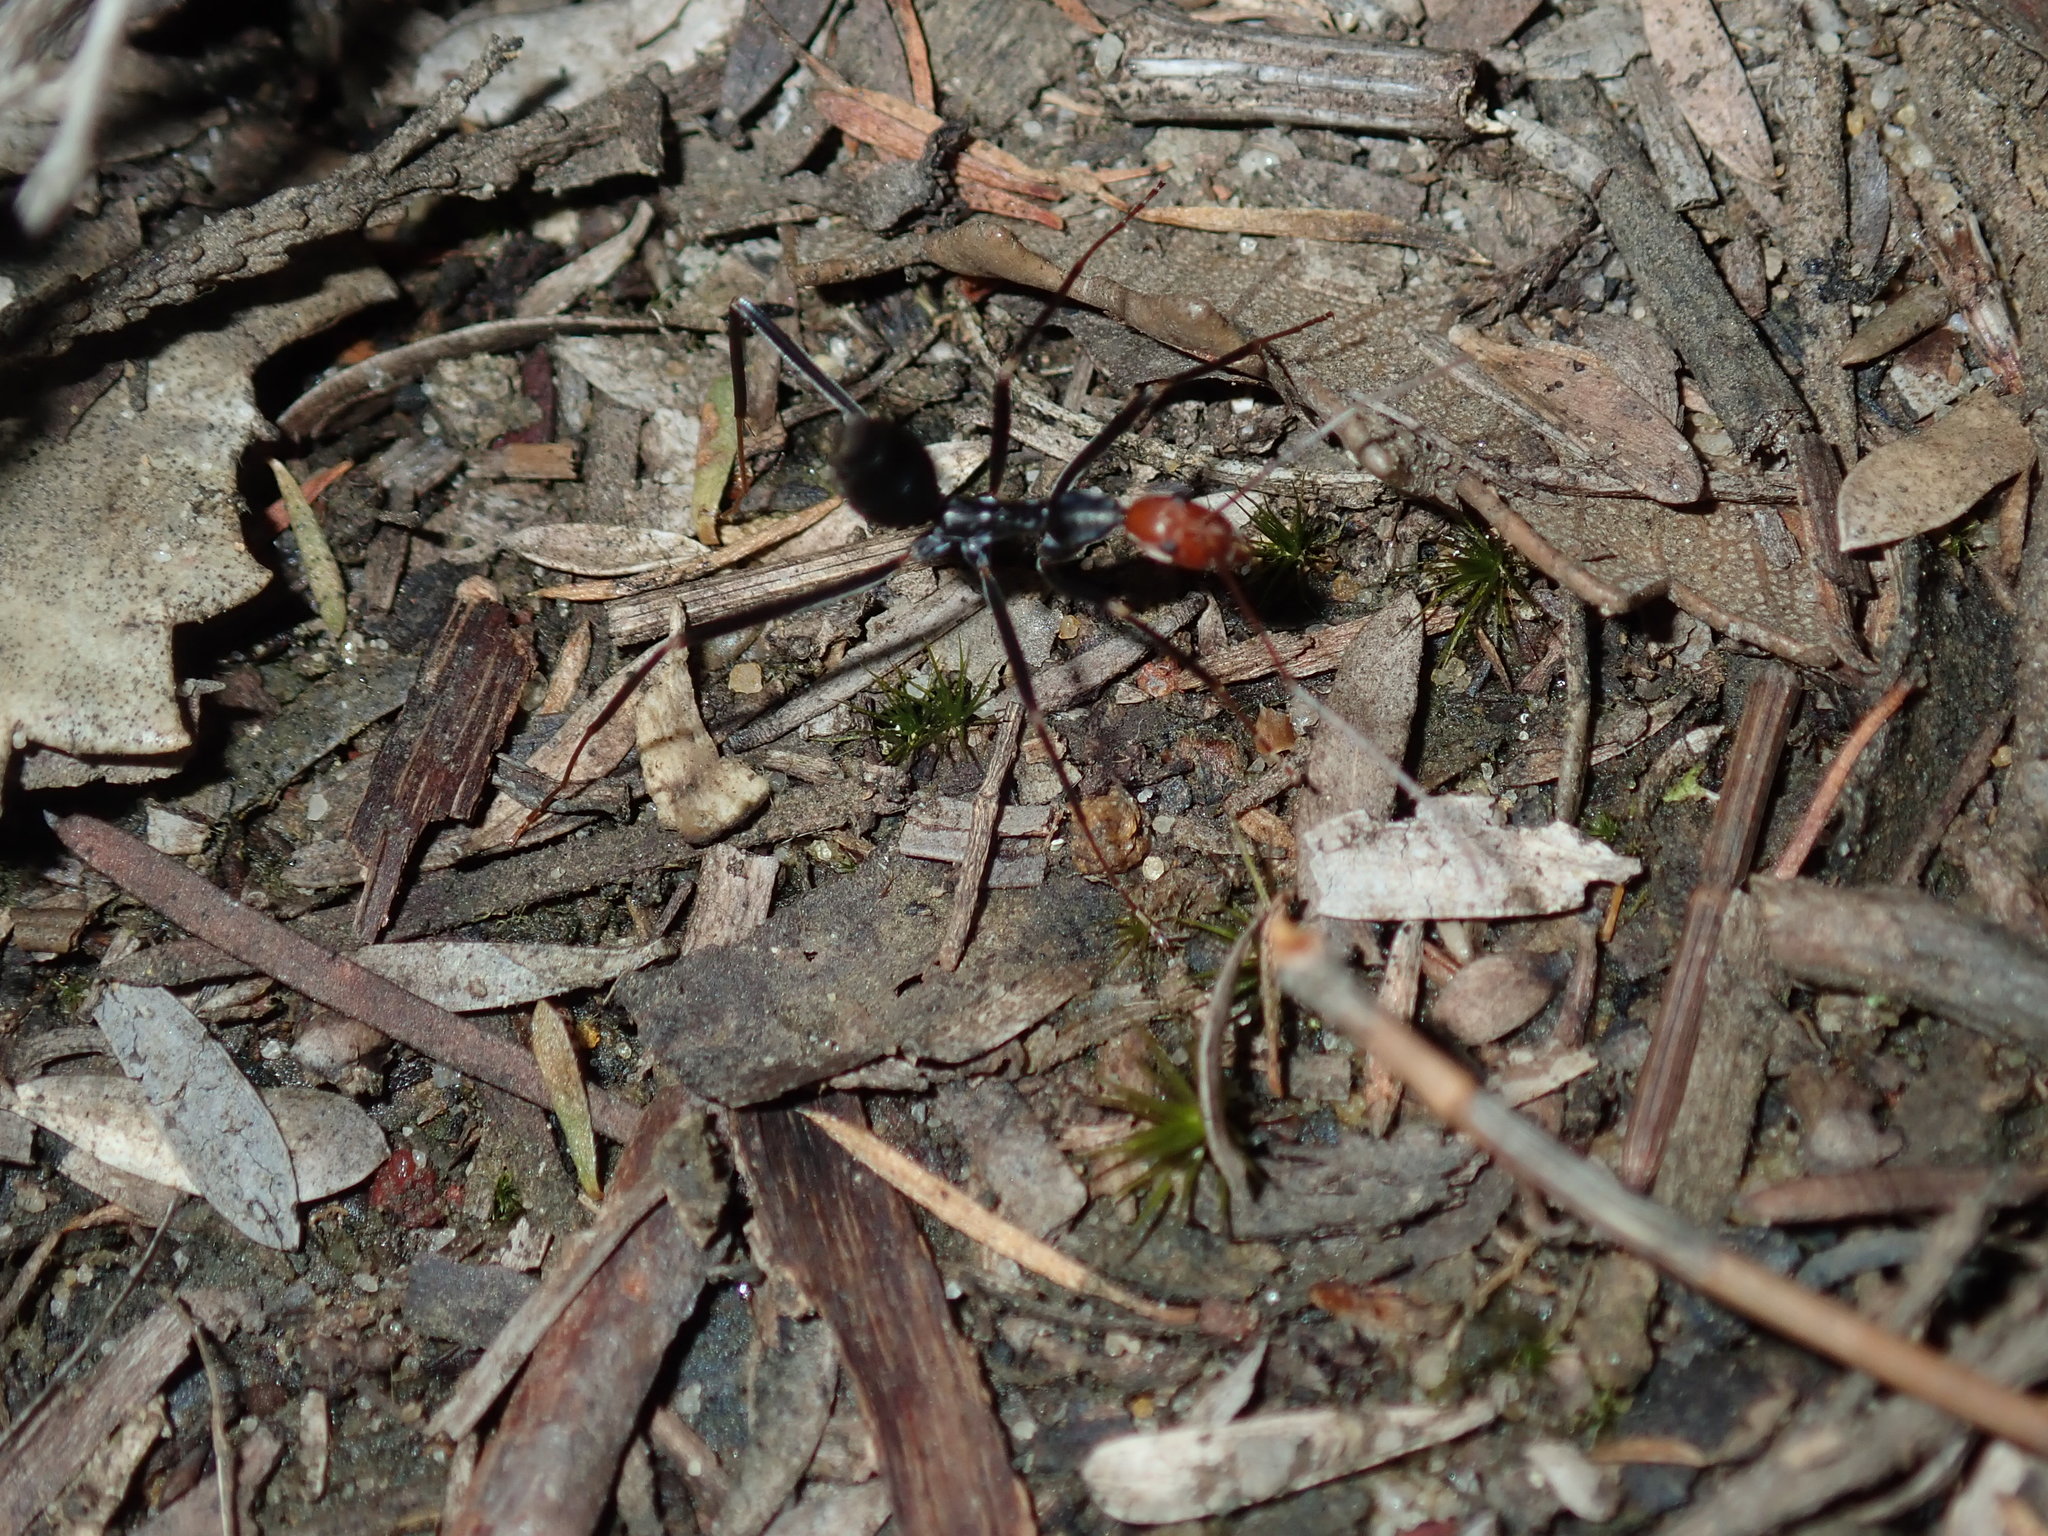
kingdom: Animalia
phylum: Arthropoda
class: Insecta
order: Hymenoptera
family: Formicidae
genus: Leptomyrmex
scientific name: Leptomyrmex erythrocephalus
